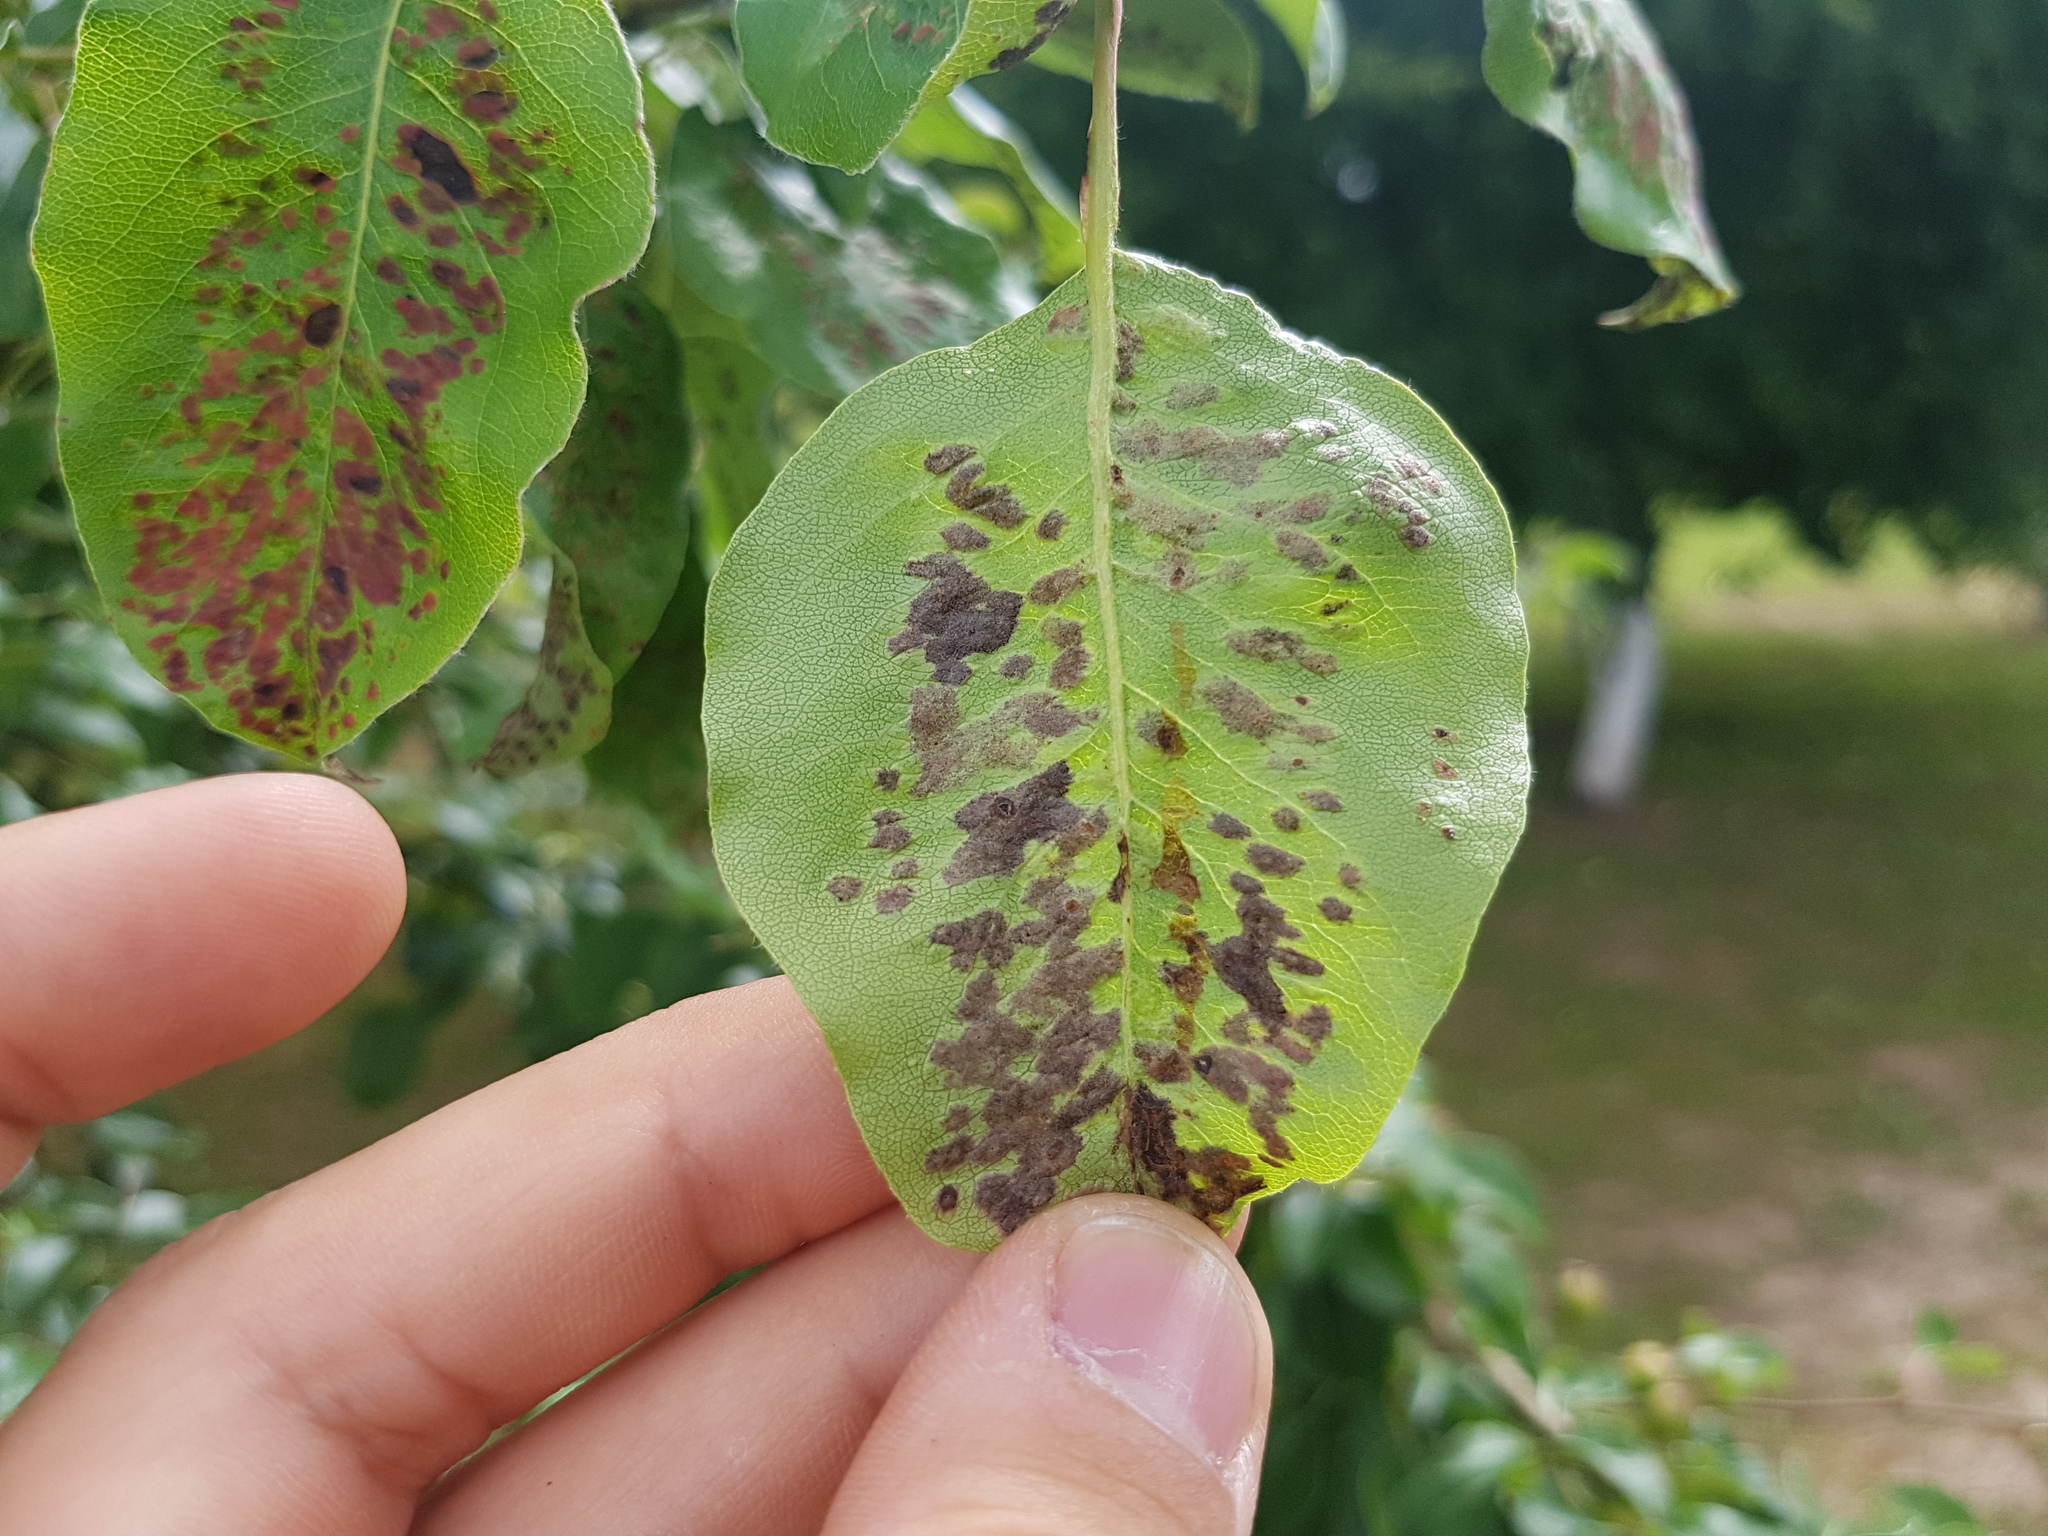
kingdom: Animalia
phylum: Arthropoda
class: Arachnida
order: Trombidiformes
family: Eriophyidae
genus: Eriophyes
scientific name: Eriophyes pyri
